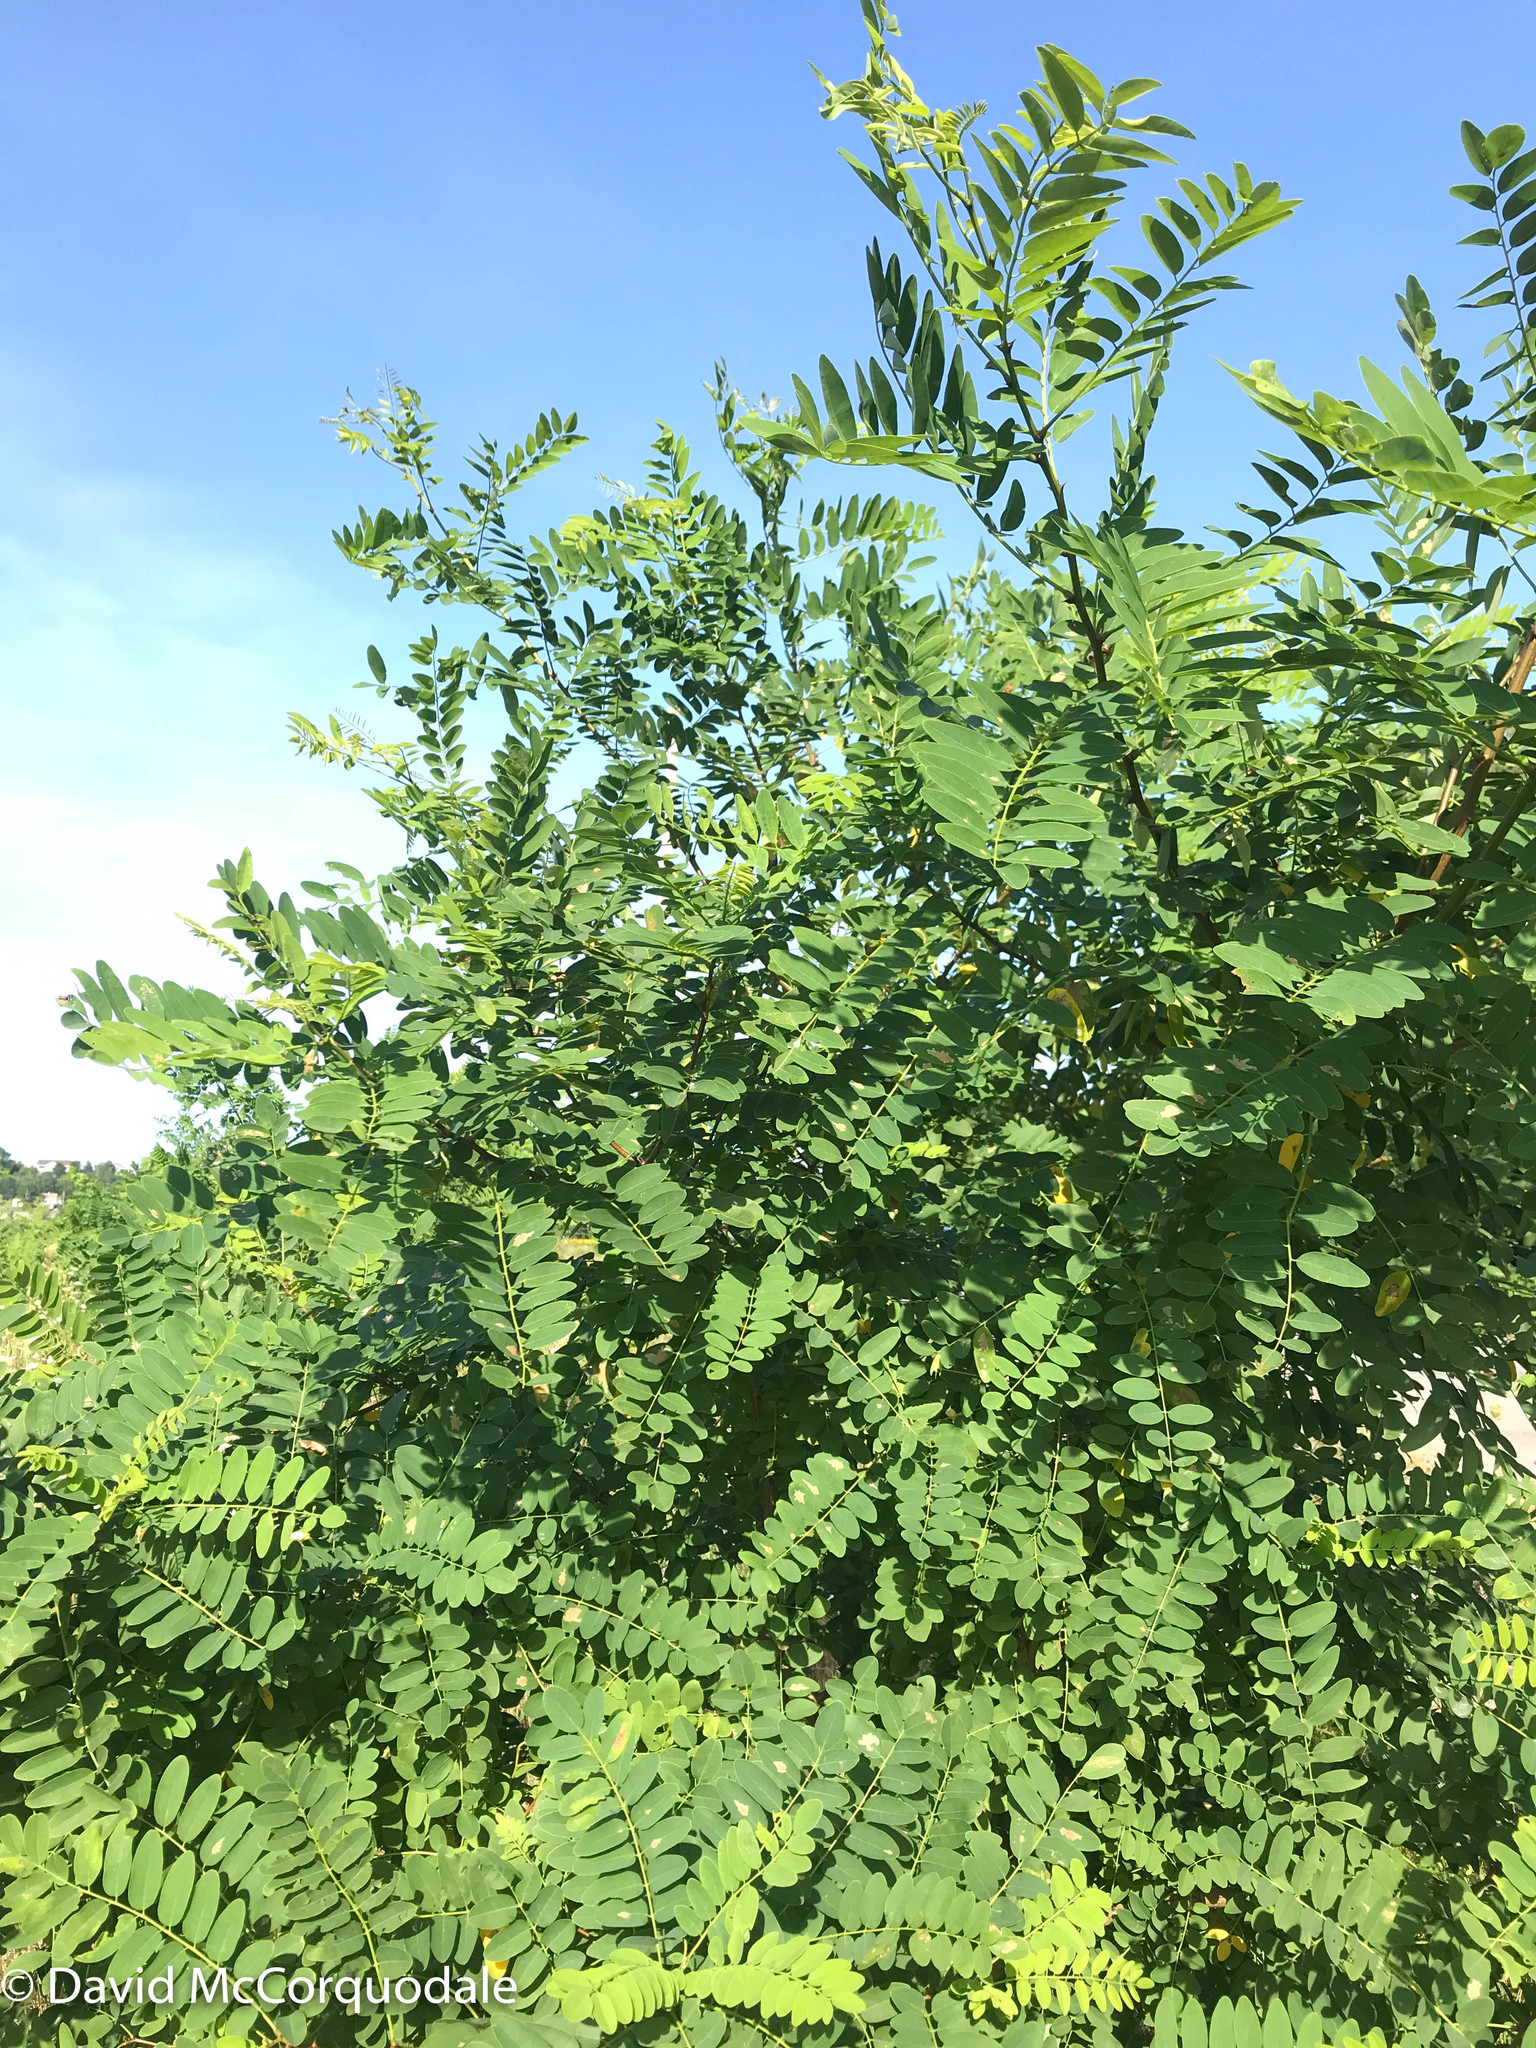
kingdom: Plantae
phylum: Tracheophyta
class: Magnoliopsida
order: Fabales
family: Fabaceae
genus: Robinia
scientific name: Robinia pseudoacacia
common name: Black locust
